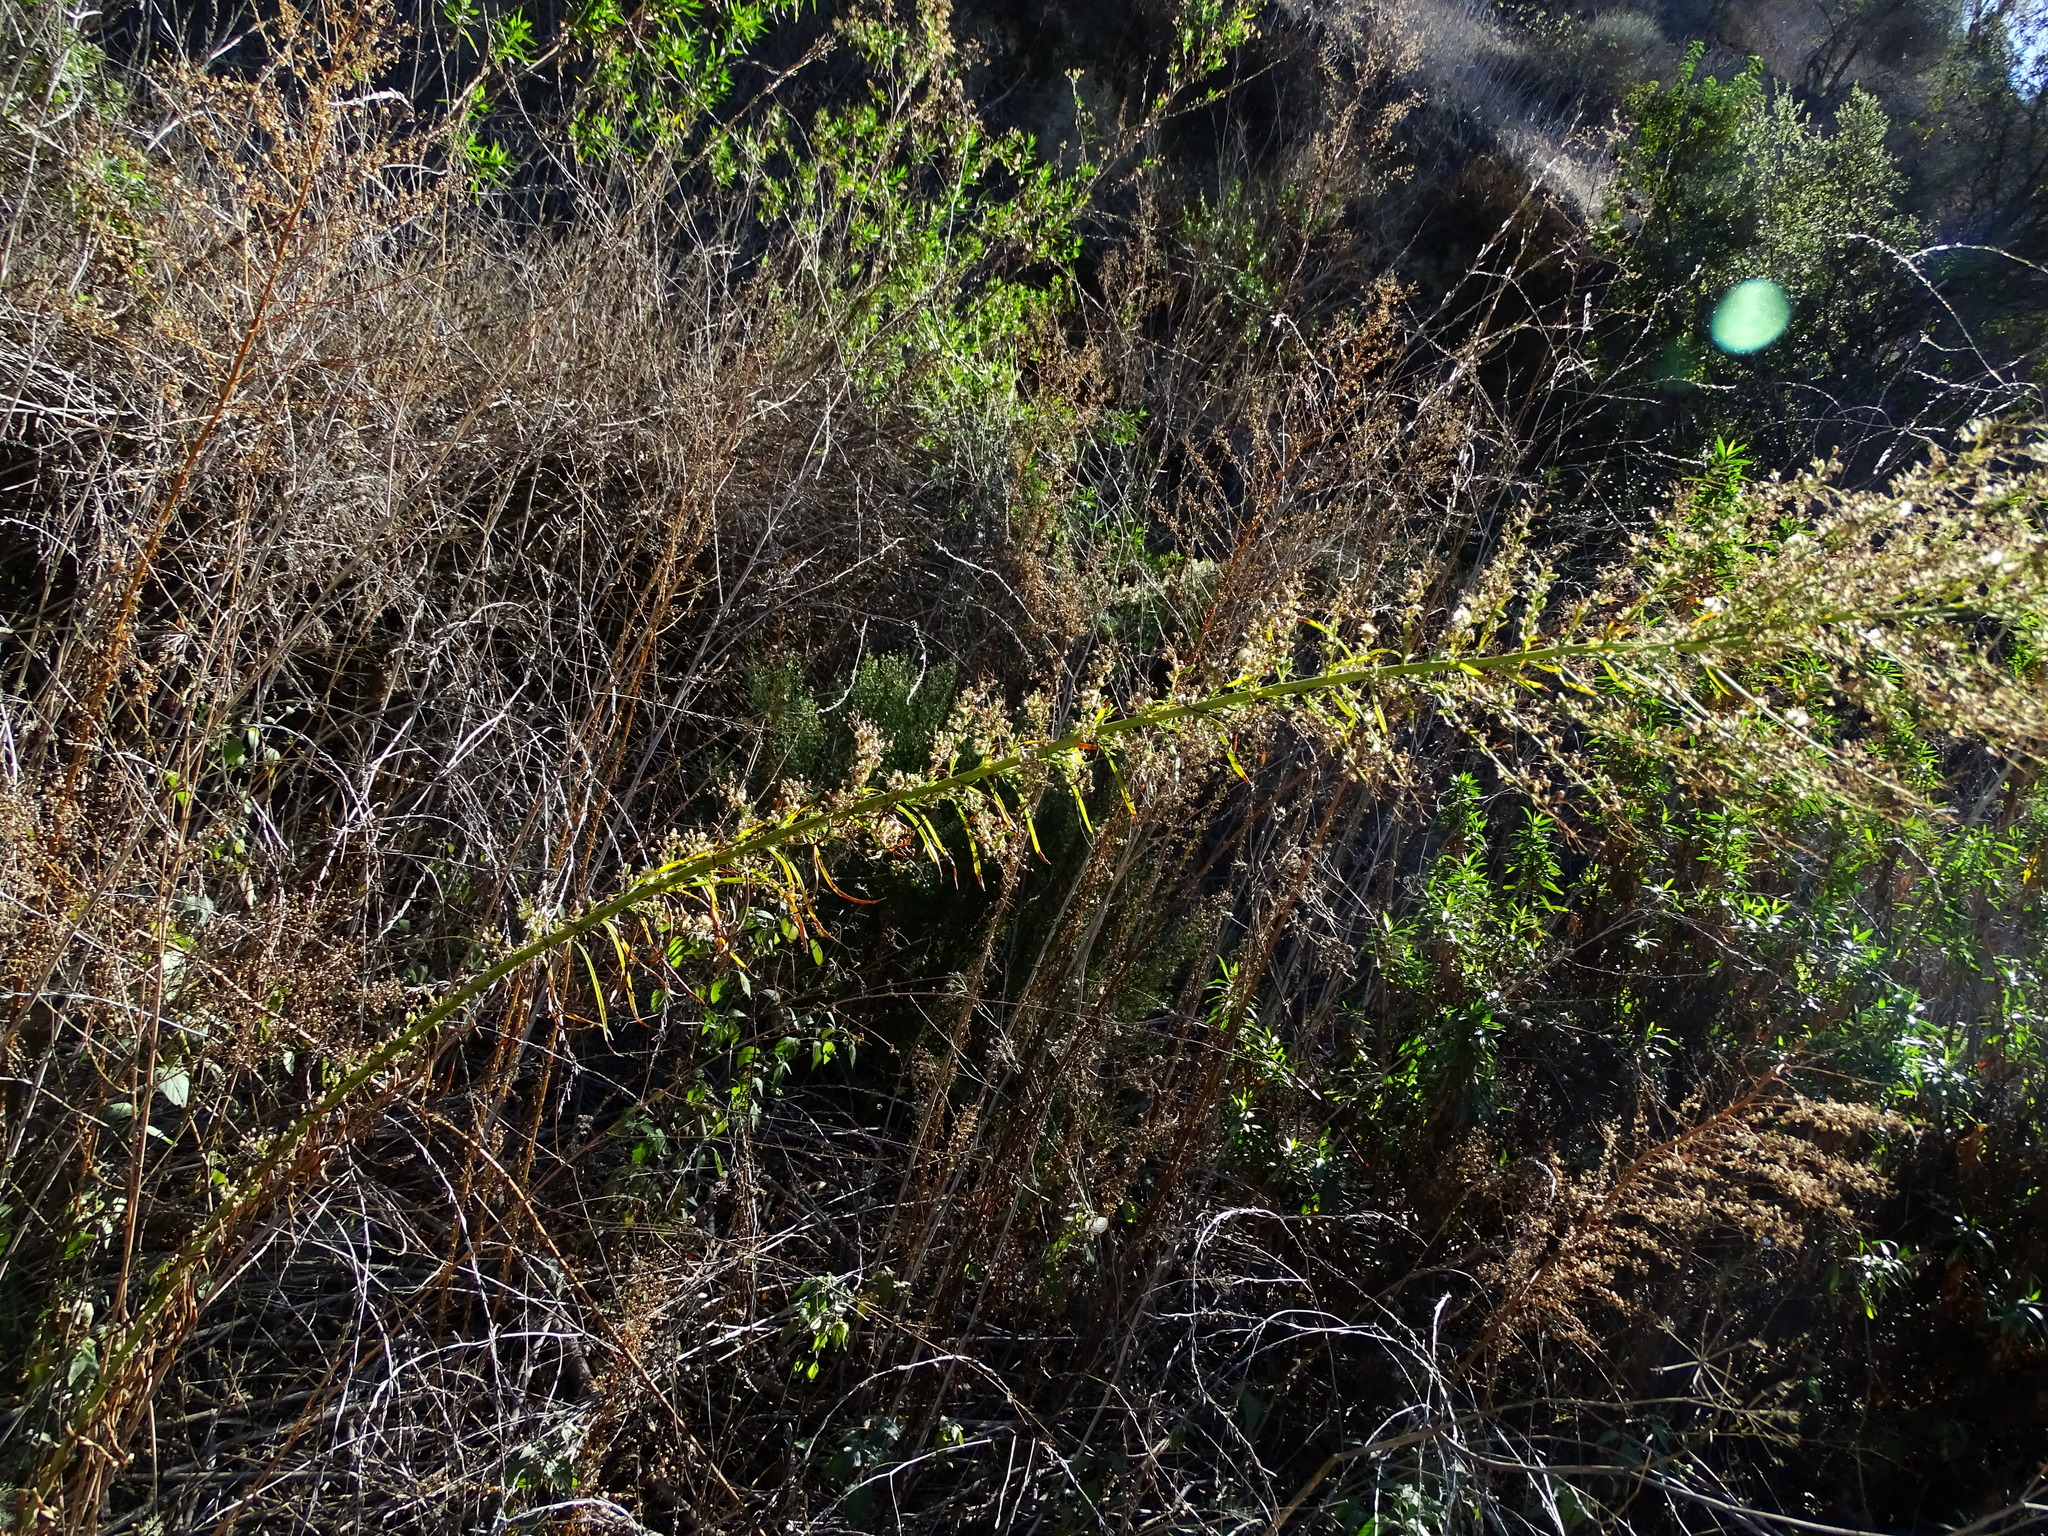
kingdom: Plantae
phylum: Tracheophyta
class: Magnoliopsida
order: Asterales
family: Asteraceae
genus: Erigeron
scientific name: Erigeron canadensis
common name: Canadian fleabane
